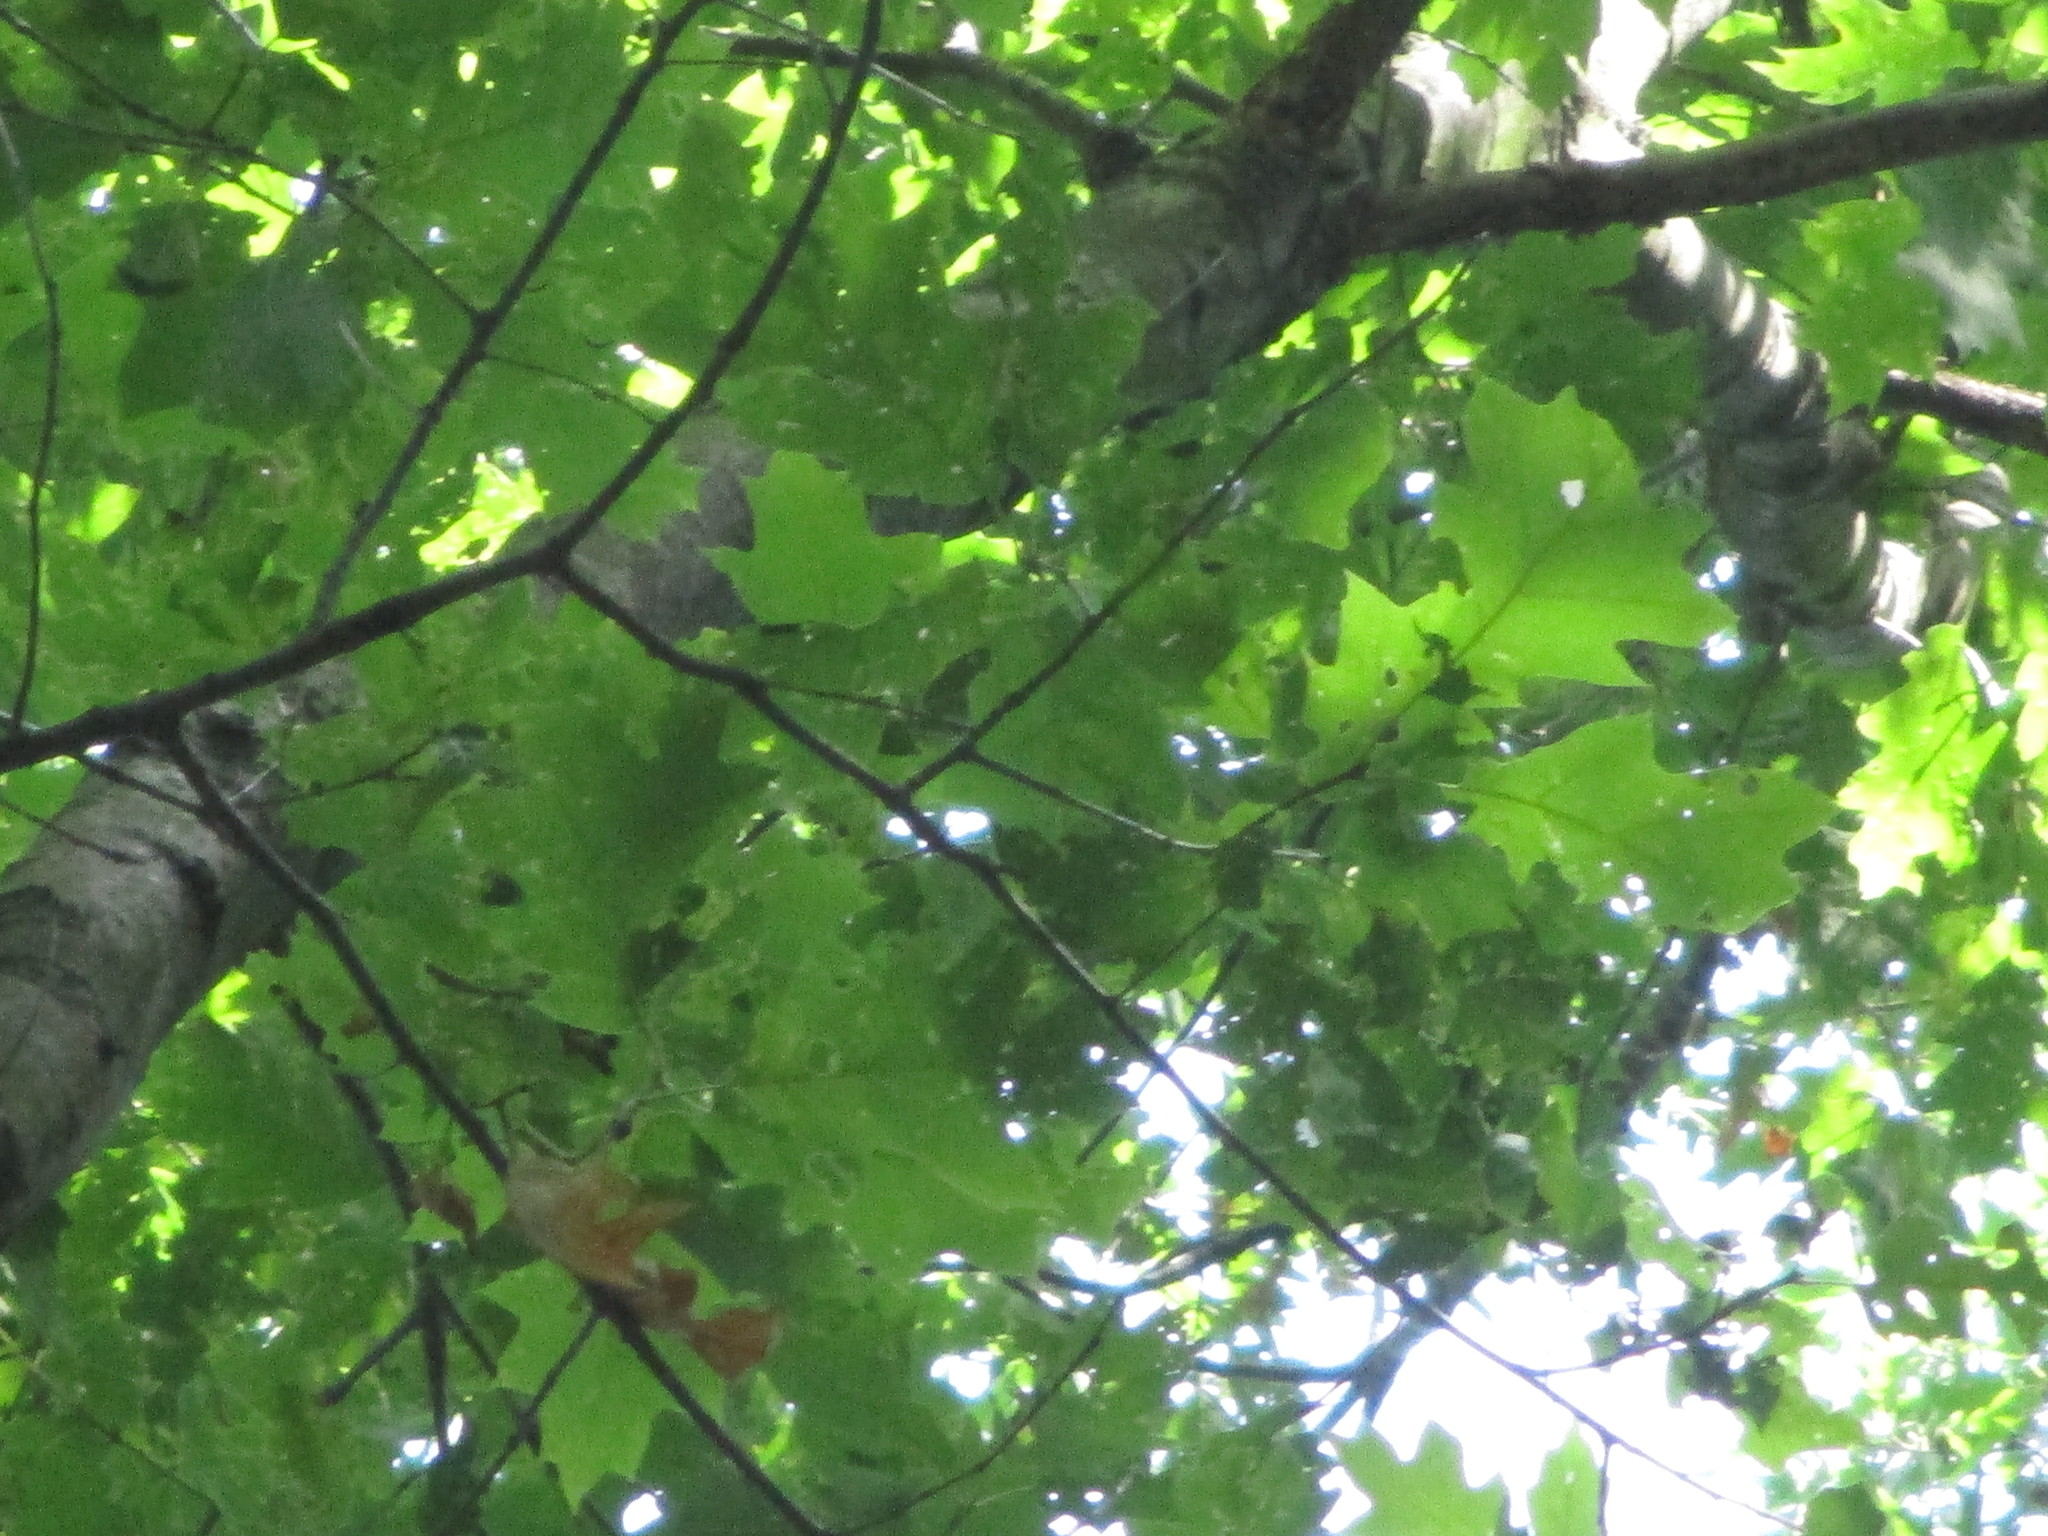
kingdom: Plantae
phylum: Tracheophyta
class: Magnoliopsida
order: Fagales
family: Fagaceae
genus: Quercus
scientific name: Quercus rubra
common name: Red oak
